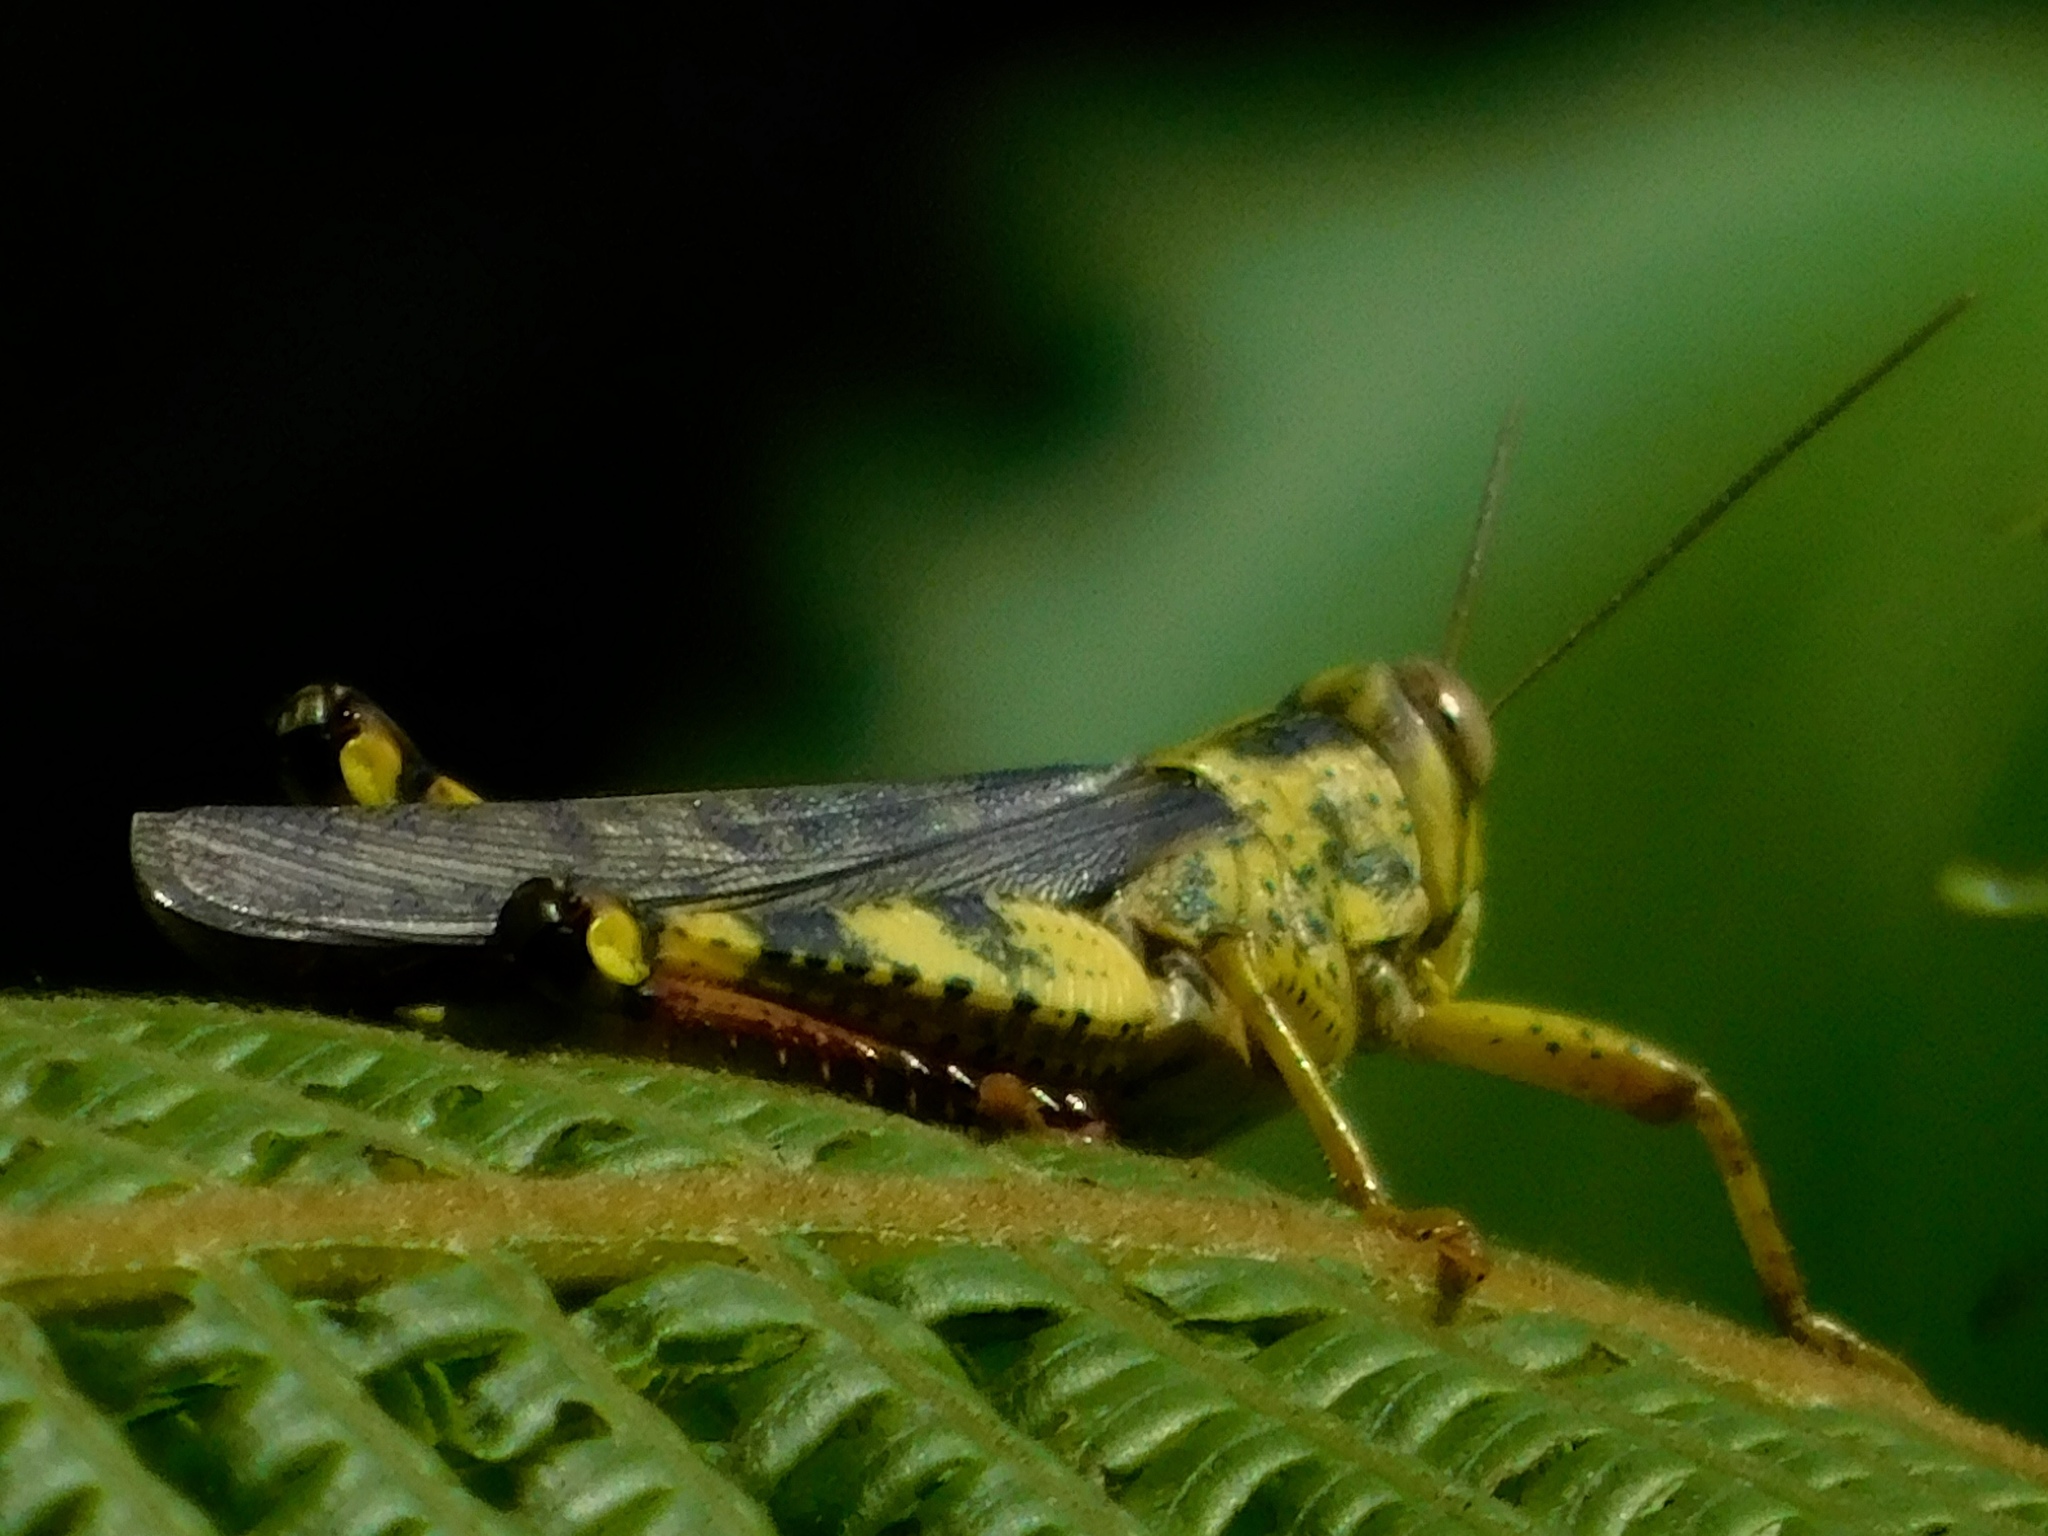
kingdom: Animalia
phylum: Arthropoda
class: Insecta
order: Orthoptera
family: Acrididae
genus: Valanga
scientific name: Valanga nigricornis
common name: Javanese bird grasshopper
